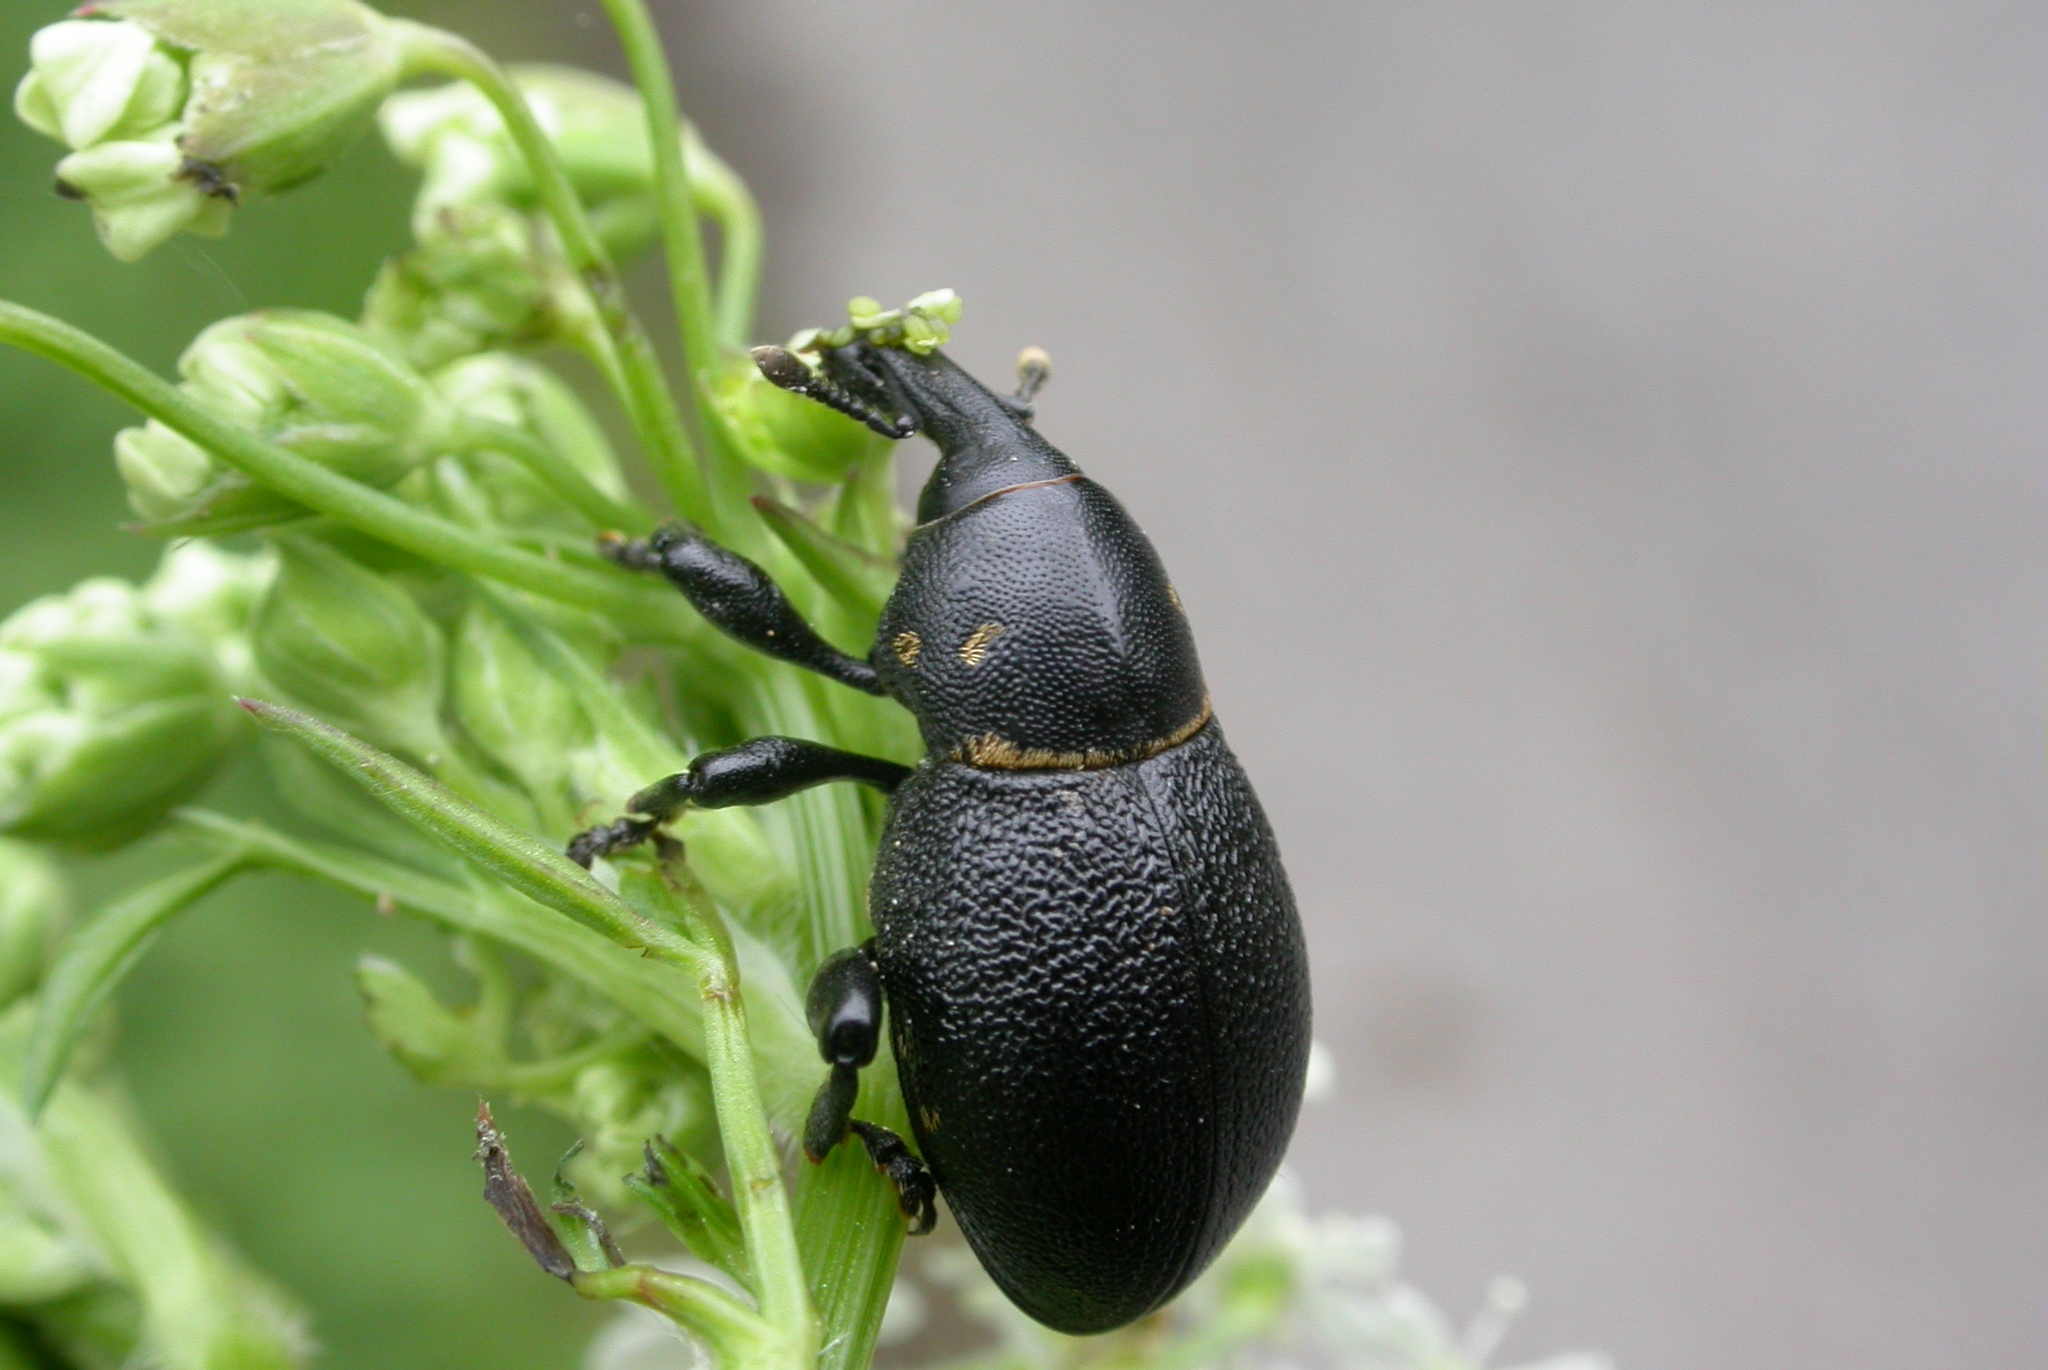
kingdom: Animalia
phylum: Arthropoda
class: Insecta
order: Coleoptera
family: Curculionidae
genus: Liparus
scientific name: Liparus coronatus
